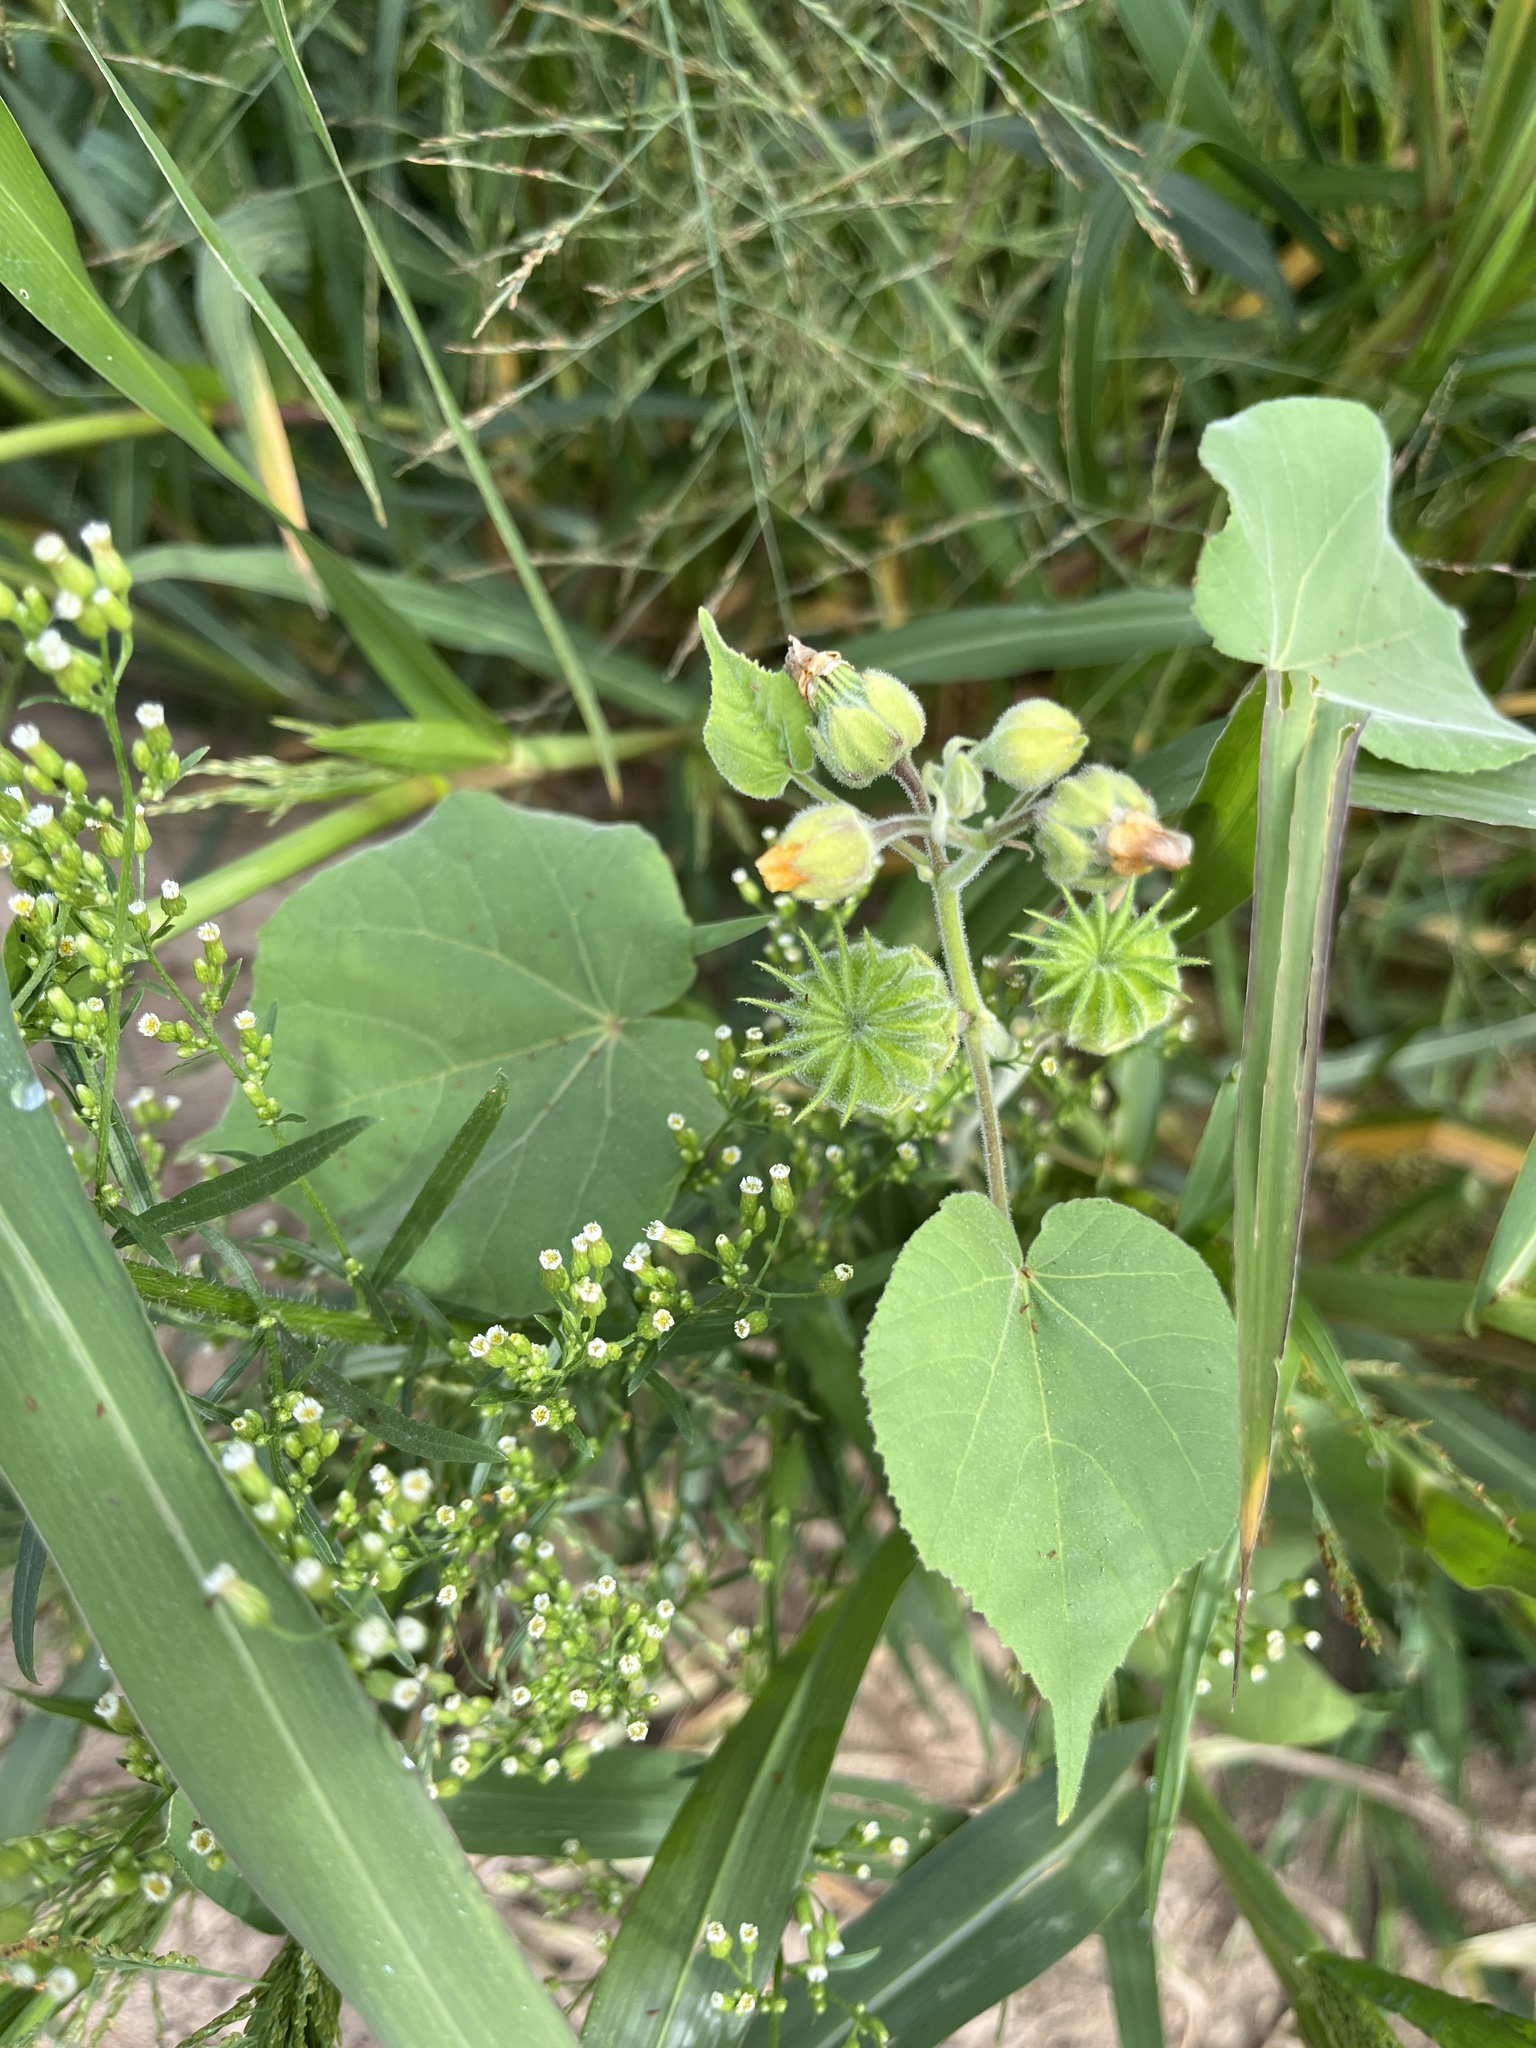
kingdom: Plantae
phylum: Tracheophyta
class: Magnoliopsida
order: Malvales
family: Malvaceae
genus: Abutilon
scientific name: Abutilon theophrasti
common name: Velvetleaf
